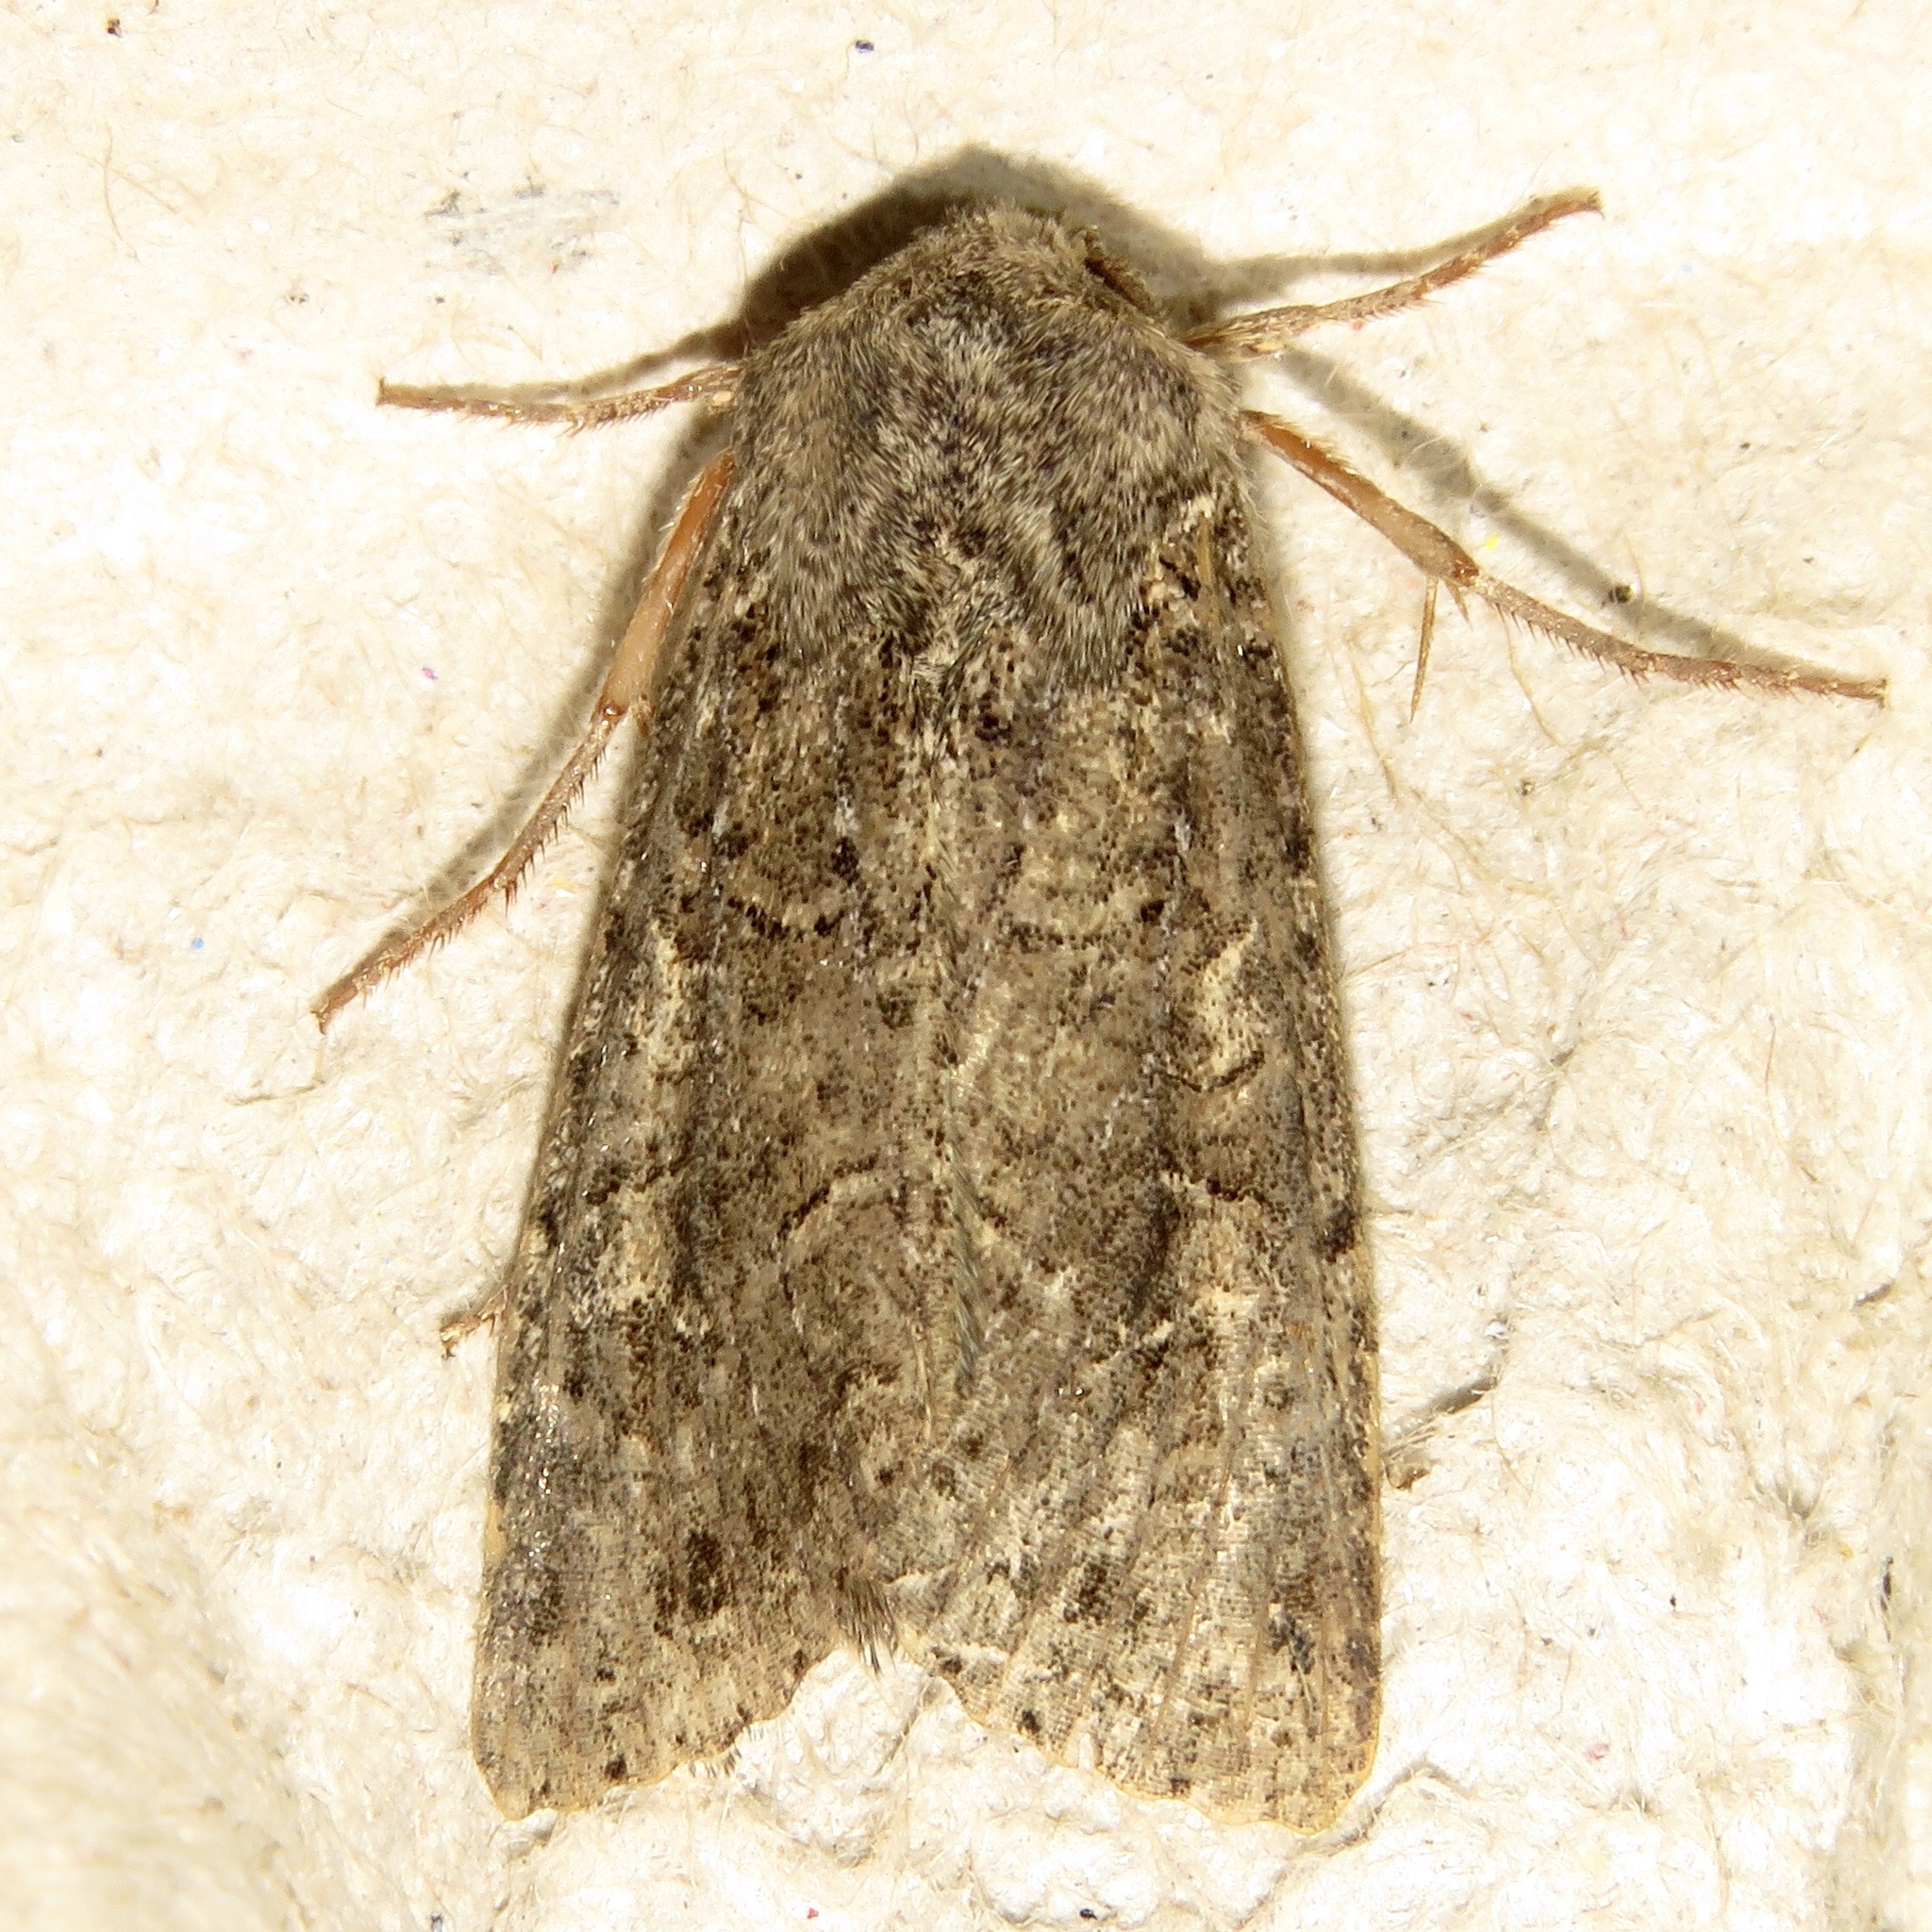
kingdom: Animalia
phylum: Arthropoda
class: Insecta
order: Lepidoptera
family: Noctuidae
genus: Apamea
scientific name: Apamea devastator
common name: Glassy cutworm
